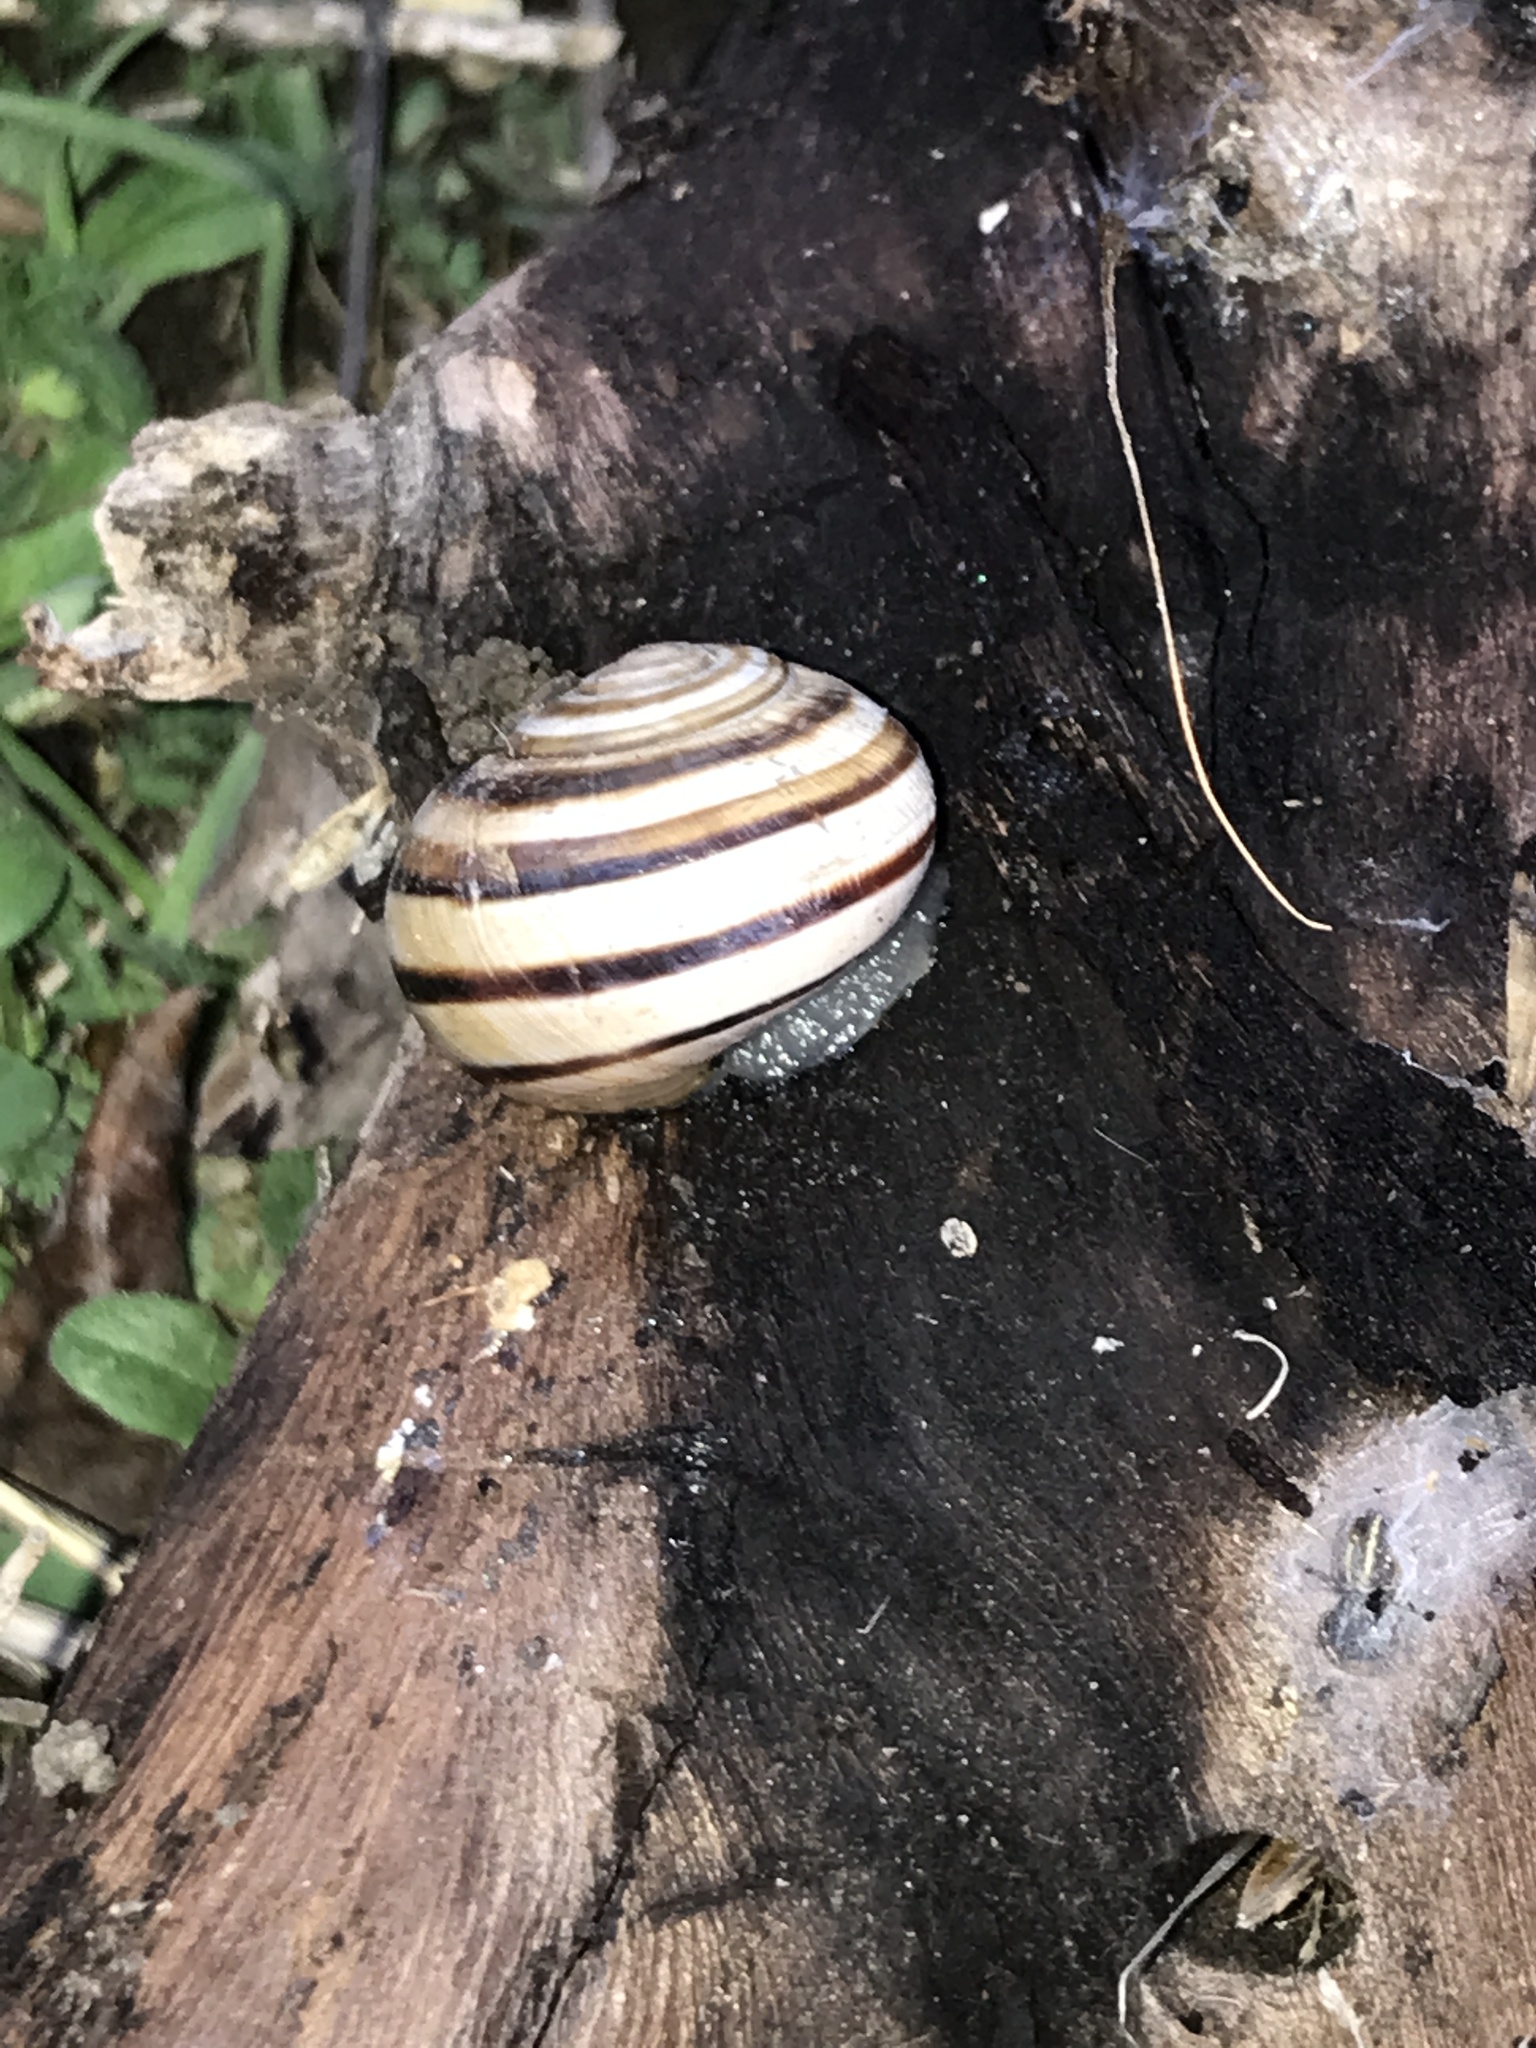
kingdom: Animalia
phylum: Mollusca
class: Gastropoda
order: Stylommatophora
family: Helicidae
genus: Otala
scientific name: Otala lactea
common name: Milk snail
